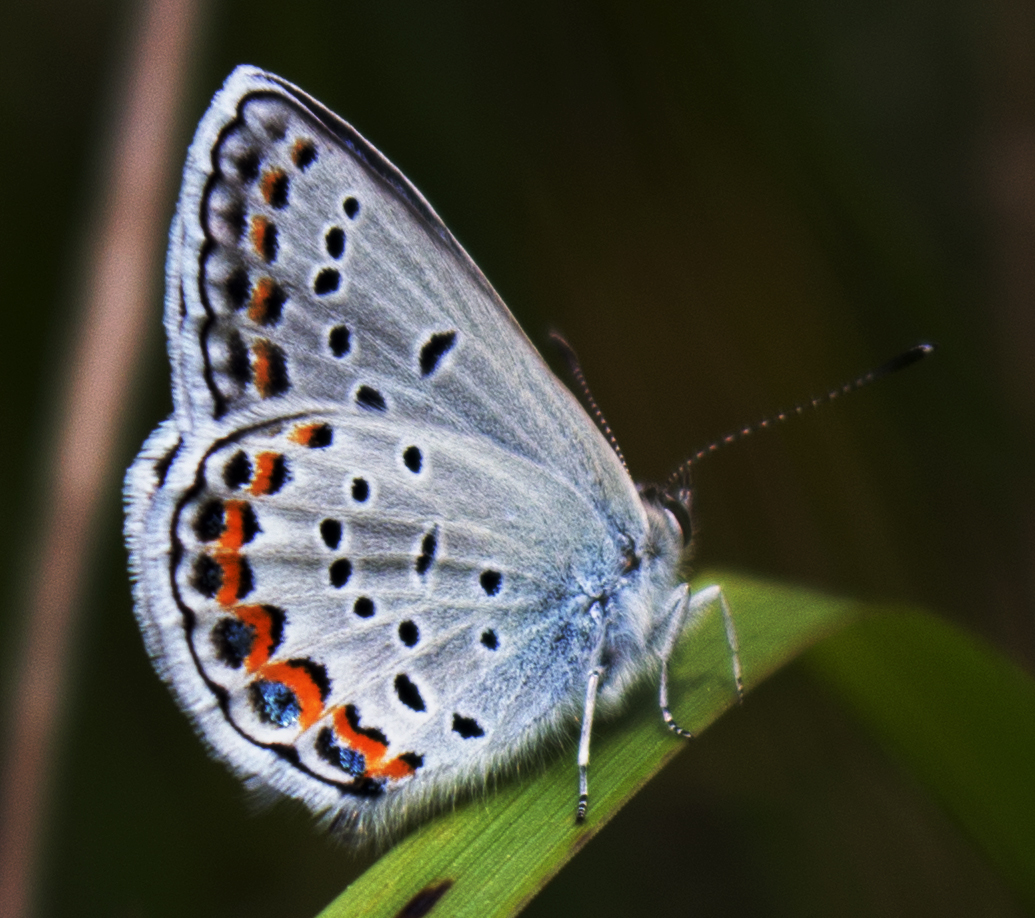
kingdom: Animalia
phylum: Arthropoda
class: Insecta
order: Lepidoptera
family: Lycaenidae
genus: Plebejus
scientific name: Plebejus samuelis
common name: Karner blue
